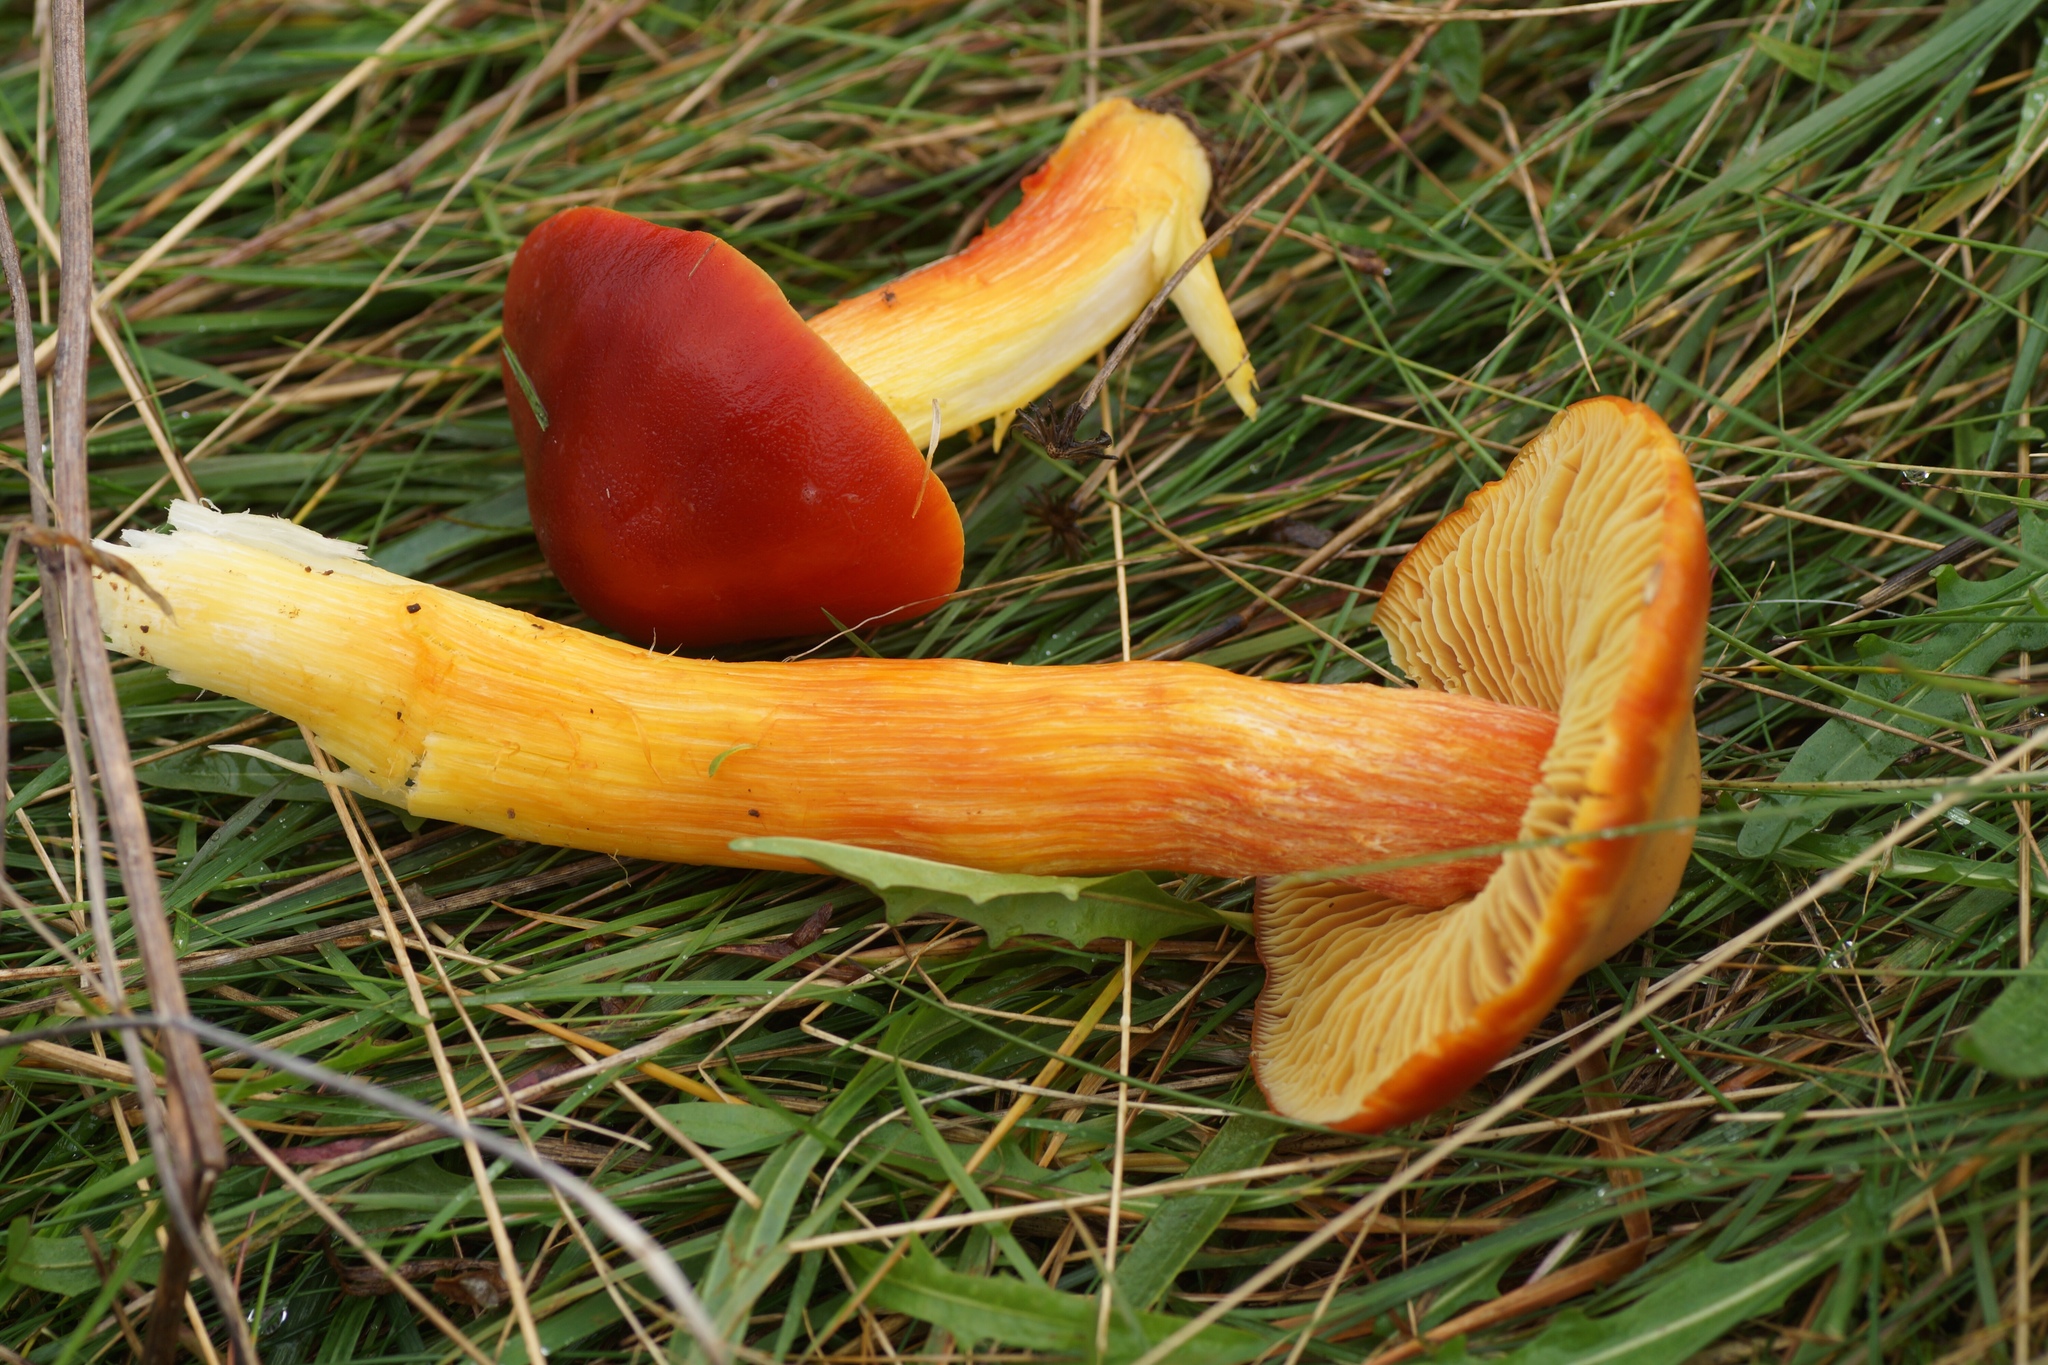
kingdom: Fungi
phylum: Basidiomycota
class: Agaricomycetes
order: Agaricales
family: Hygrophoraceae
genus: Hygrocybe
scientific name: Hygrocybe punicea
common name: Crimson waxcap
